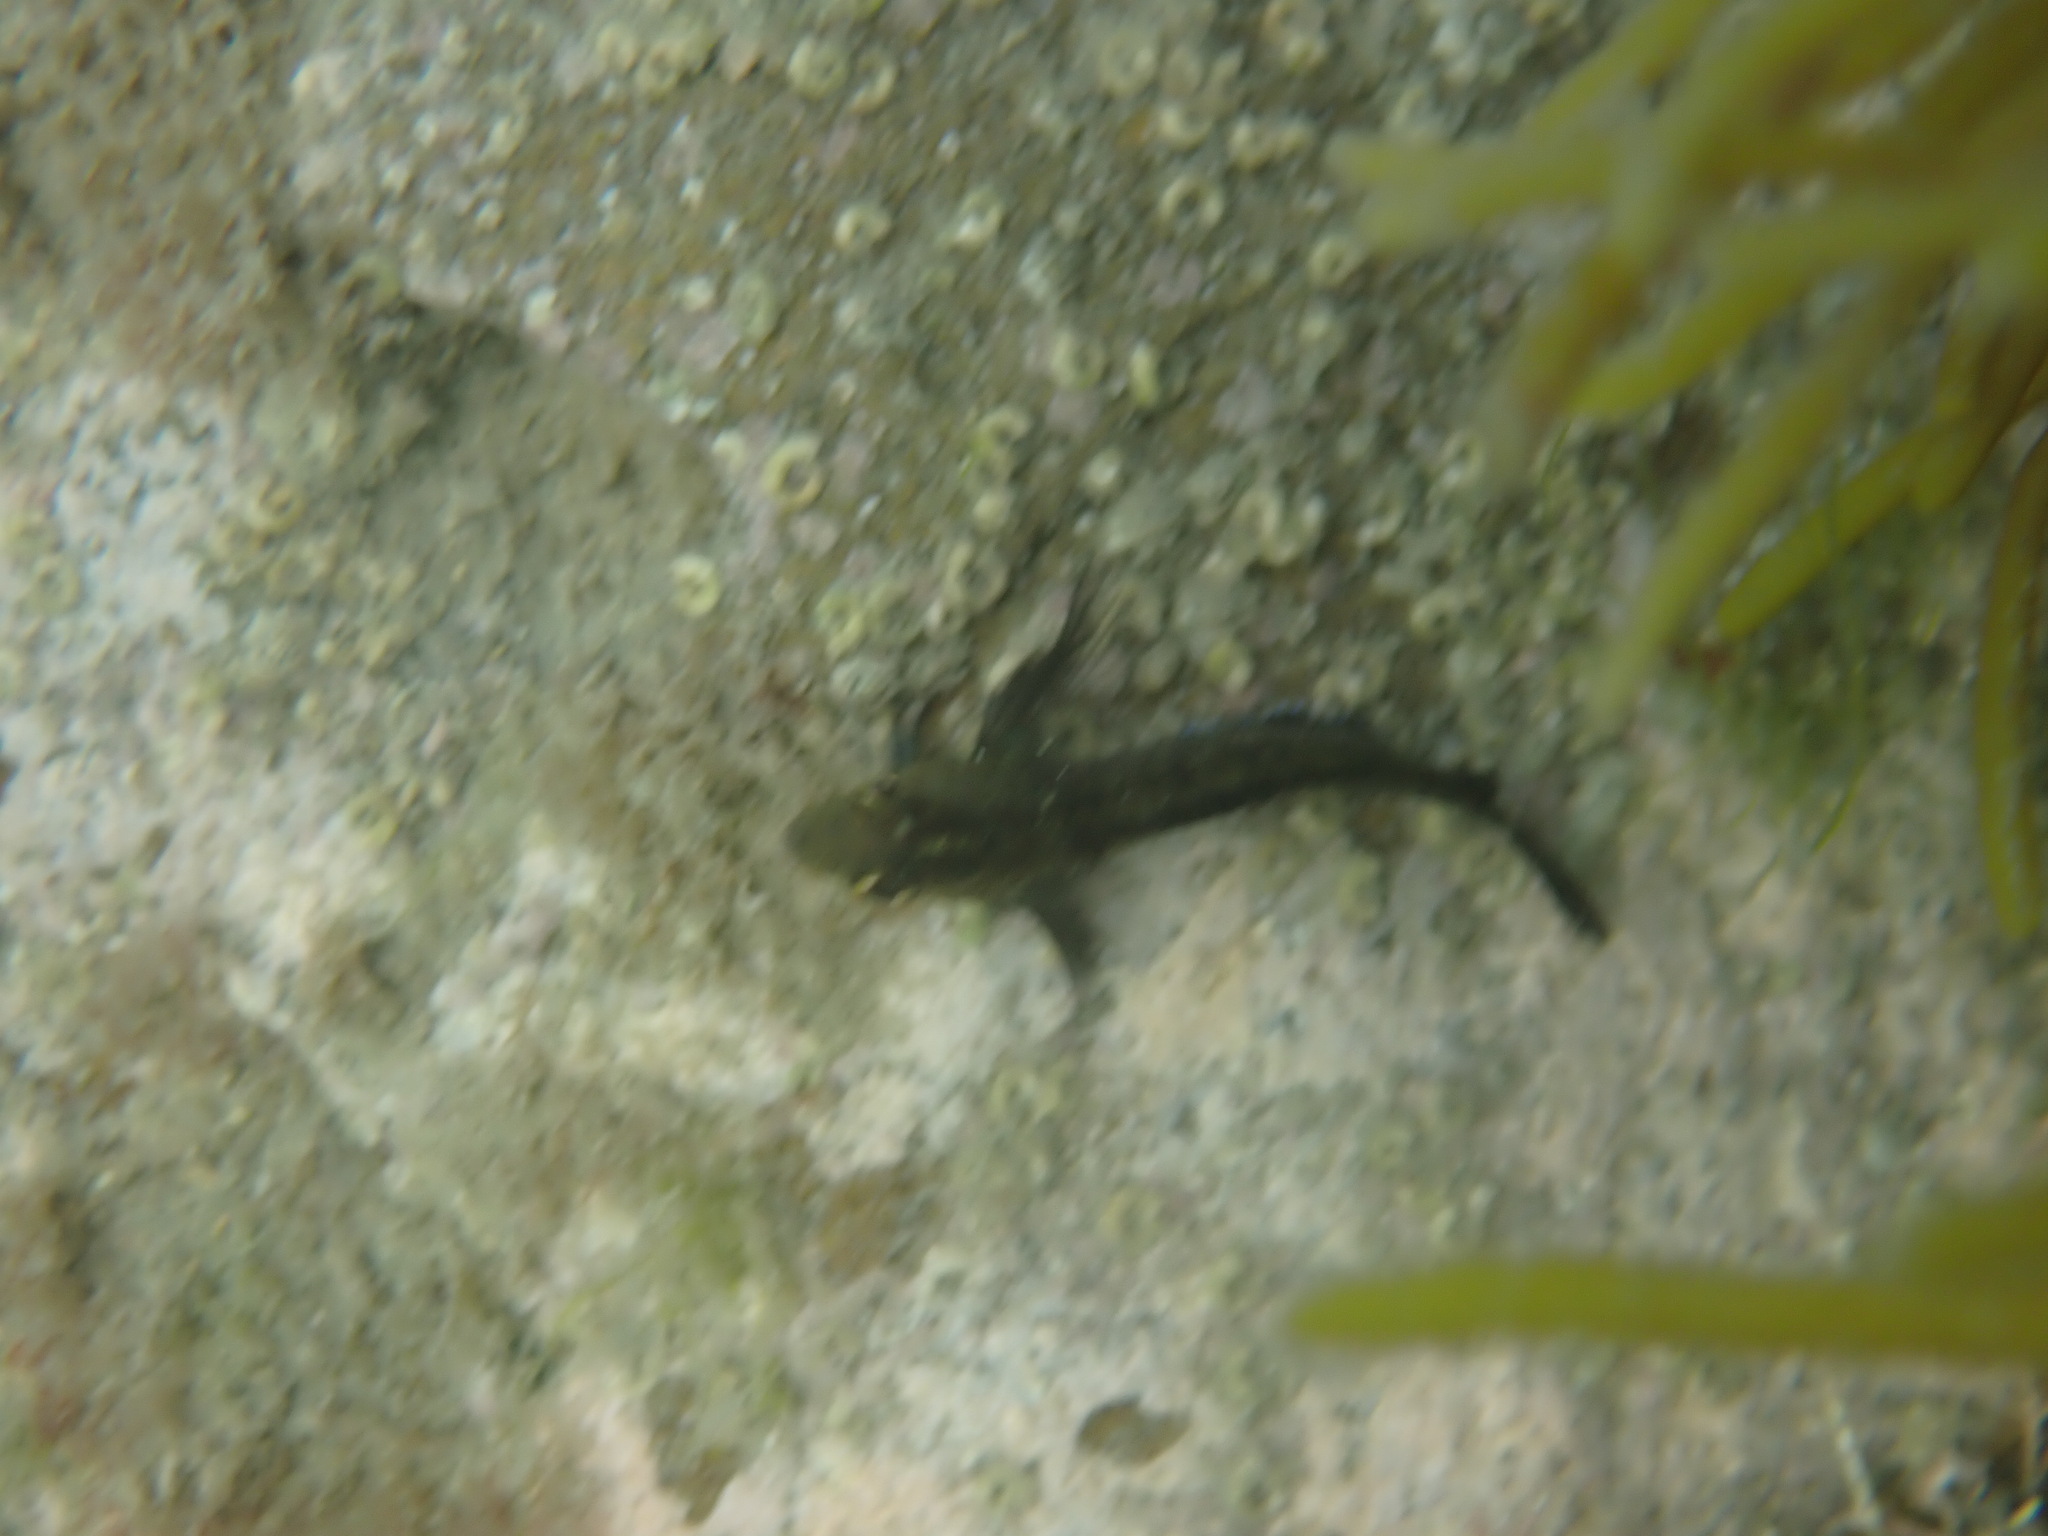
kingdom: Animalia
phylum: Chordata
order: Perciformes
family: Tripterygiidae
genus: Forsterygion
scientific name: Forsterygion lapillum
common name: Common triplefin
